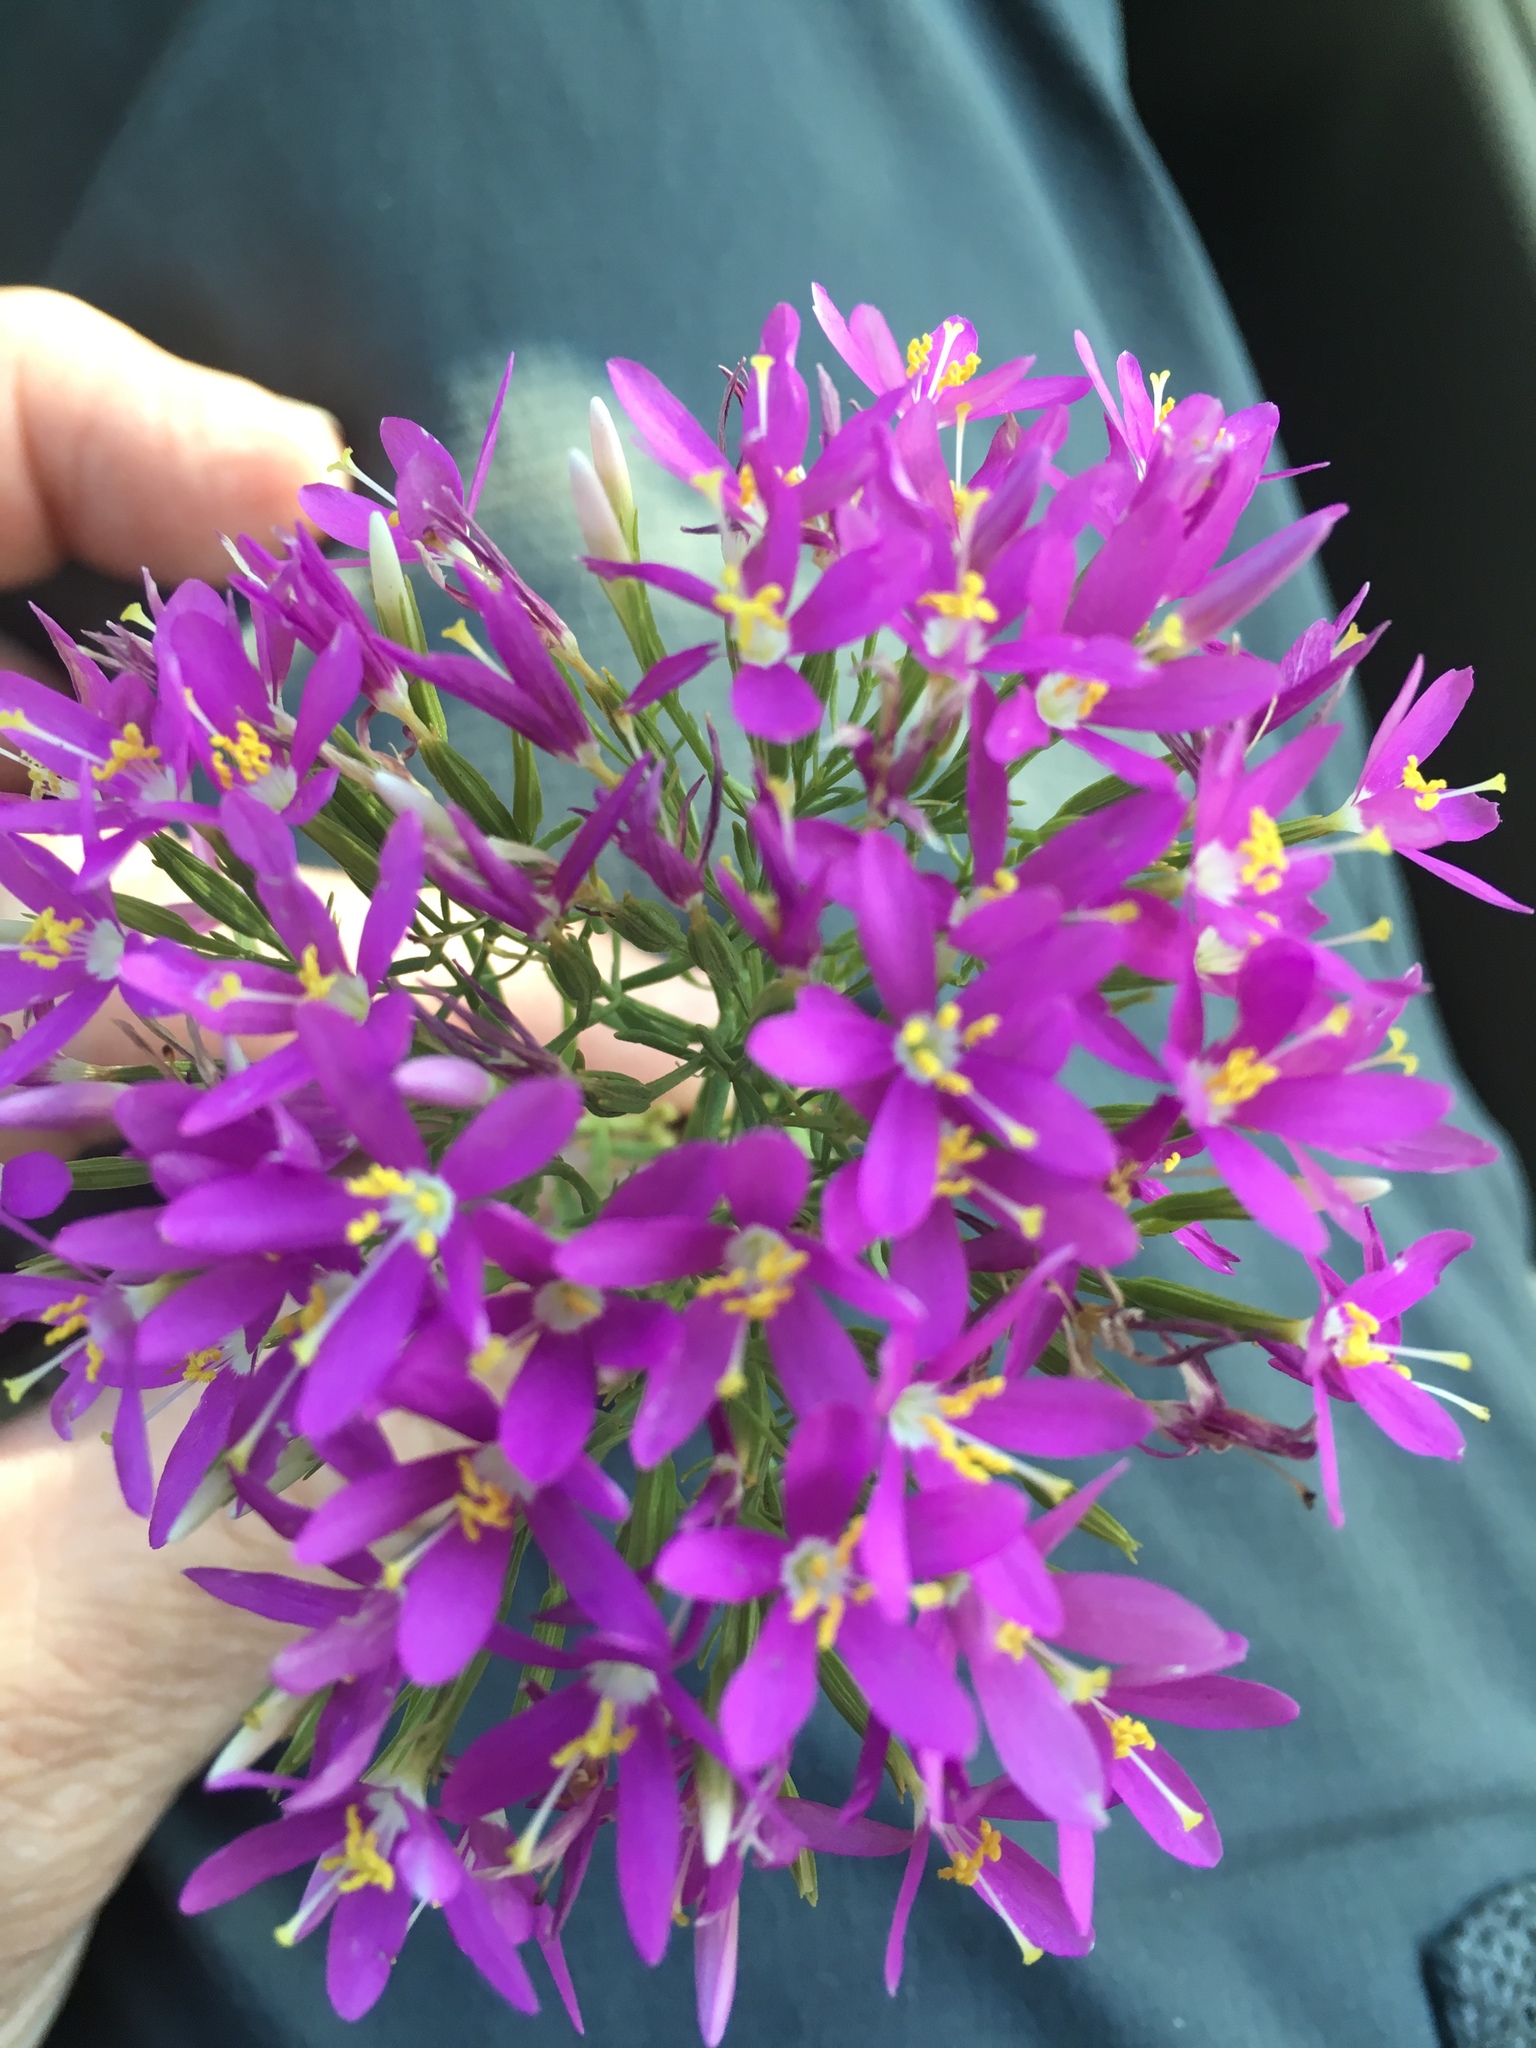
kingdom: Plantae
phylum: Tracheophyta
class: Magnoliopsida
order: Gentianales
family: Gentianaceae
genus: Zeltnera
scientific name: Zeltnera beyrichii
